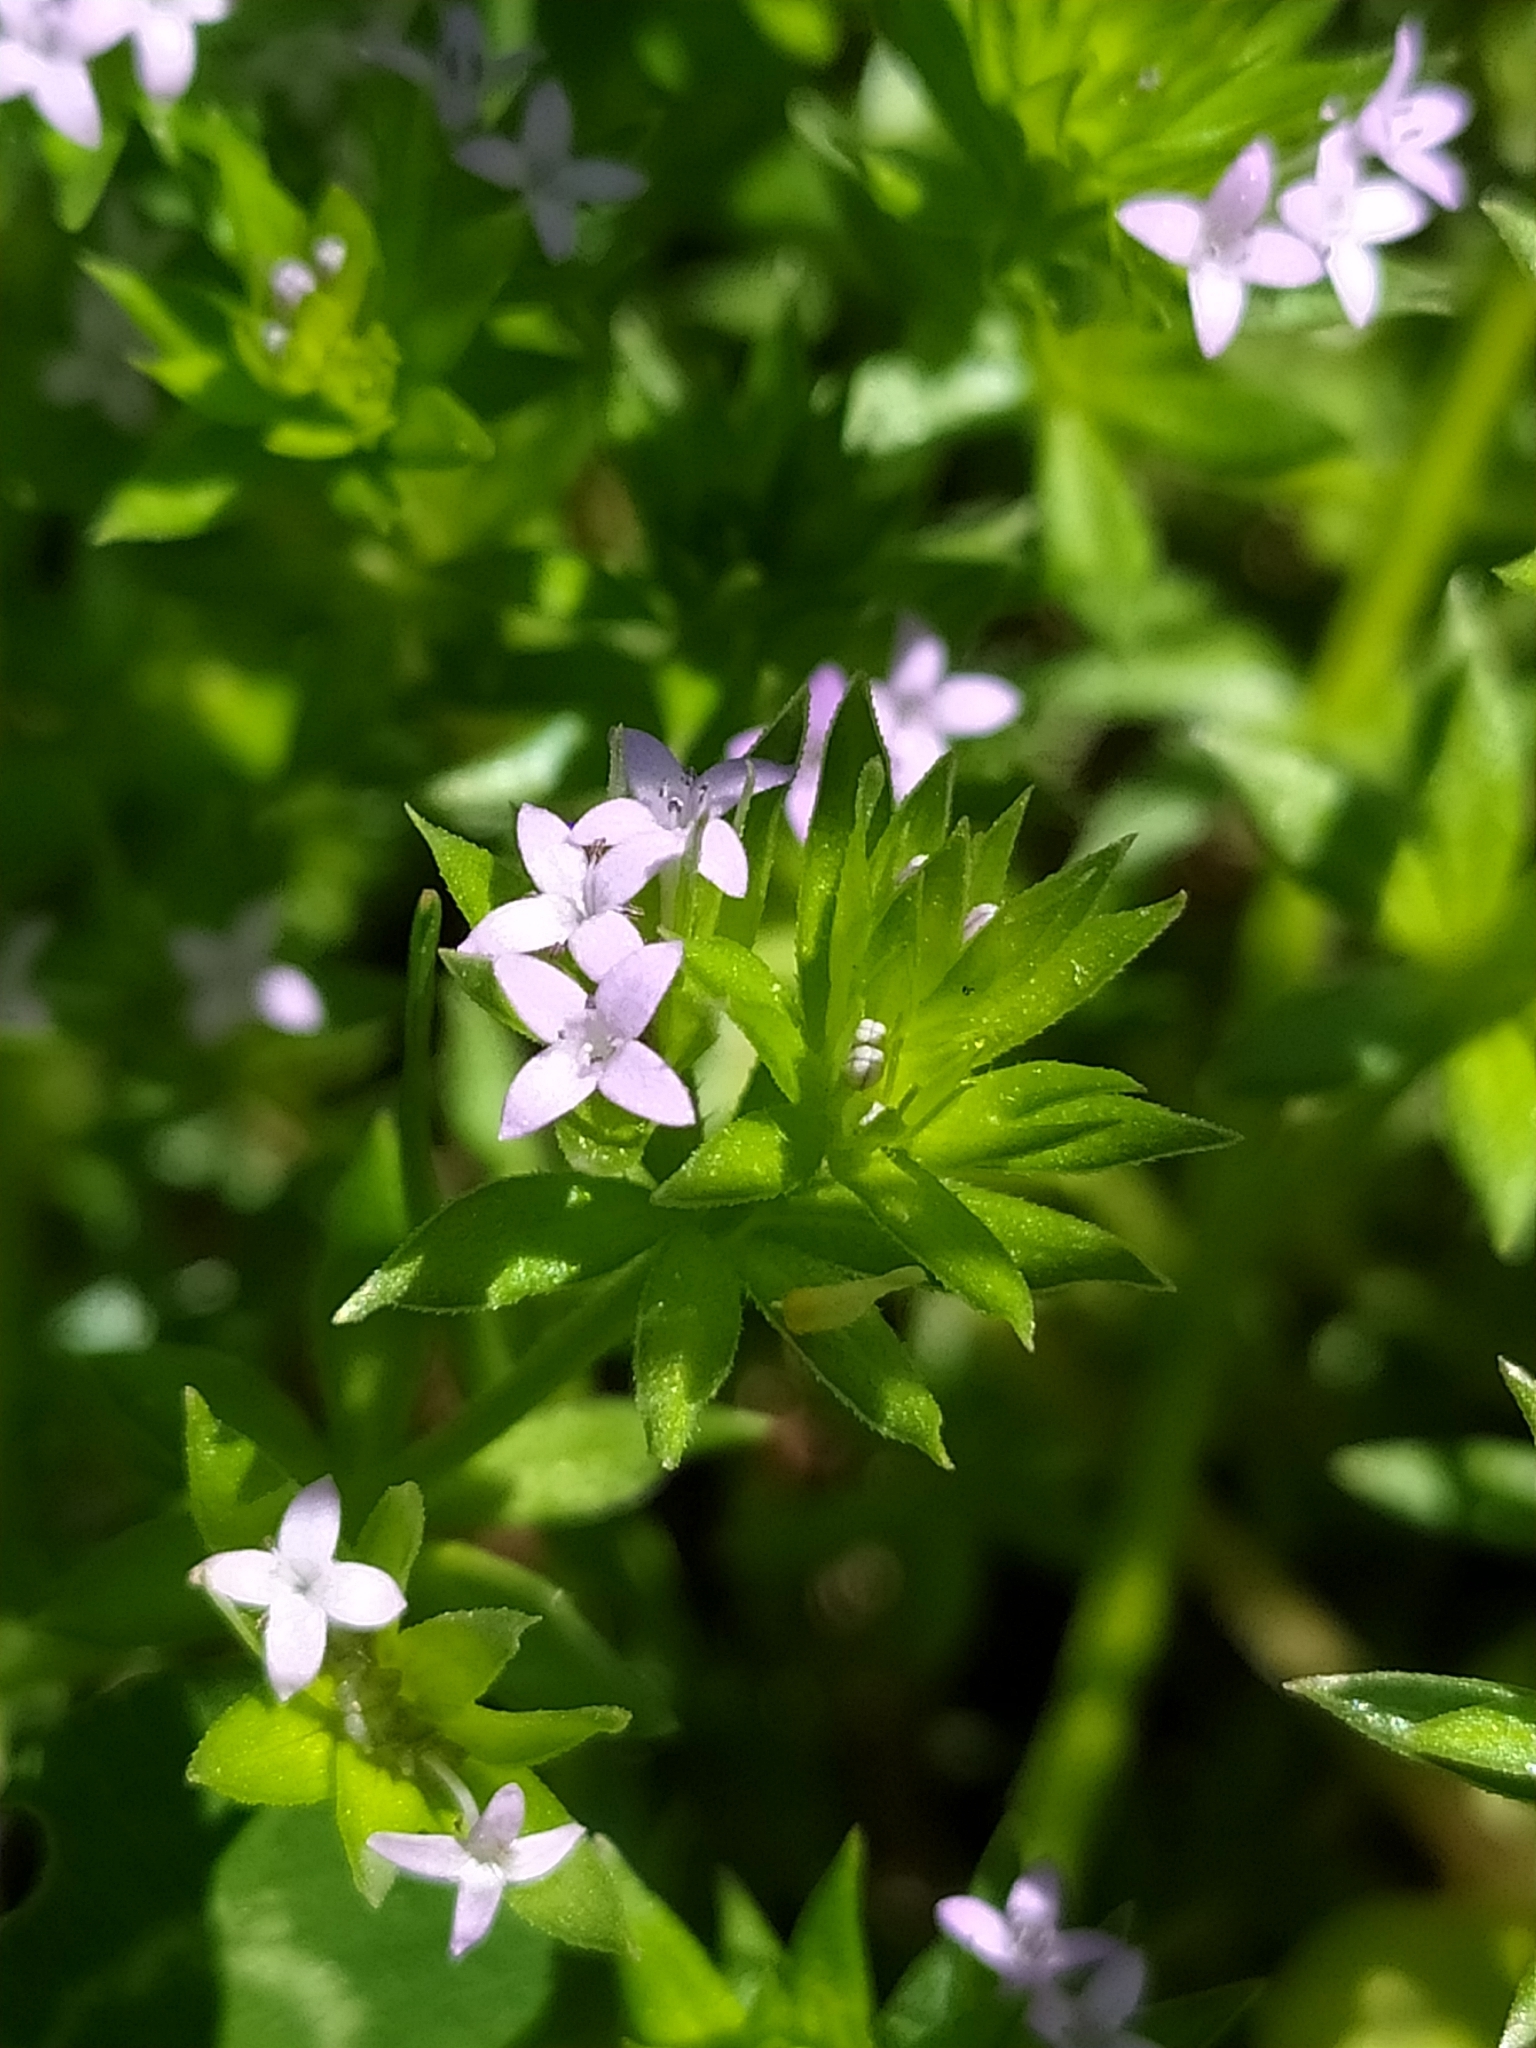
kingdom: Plantae
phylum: Tracheophyta
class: Magnoliopsida
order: Gentianales
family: Rubiaceae
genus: Sherardia
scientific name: Sherardia arvensis
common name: Field madder
